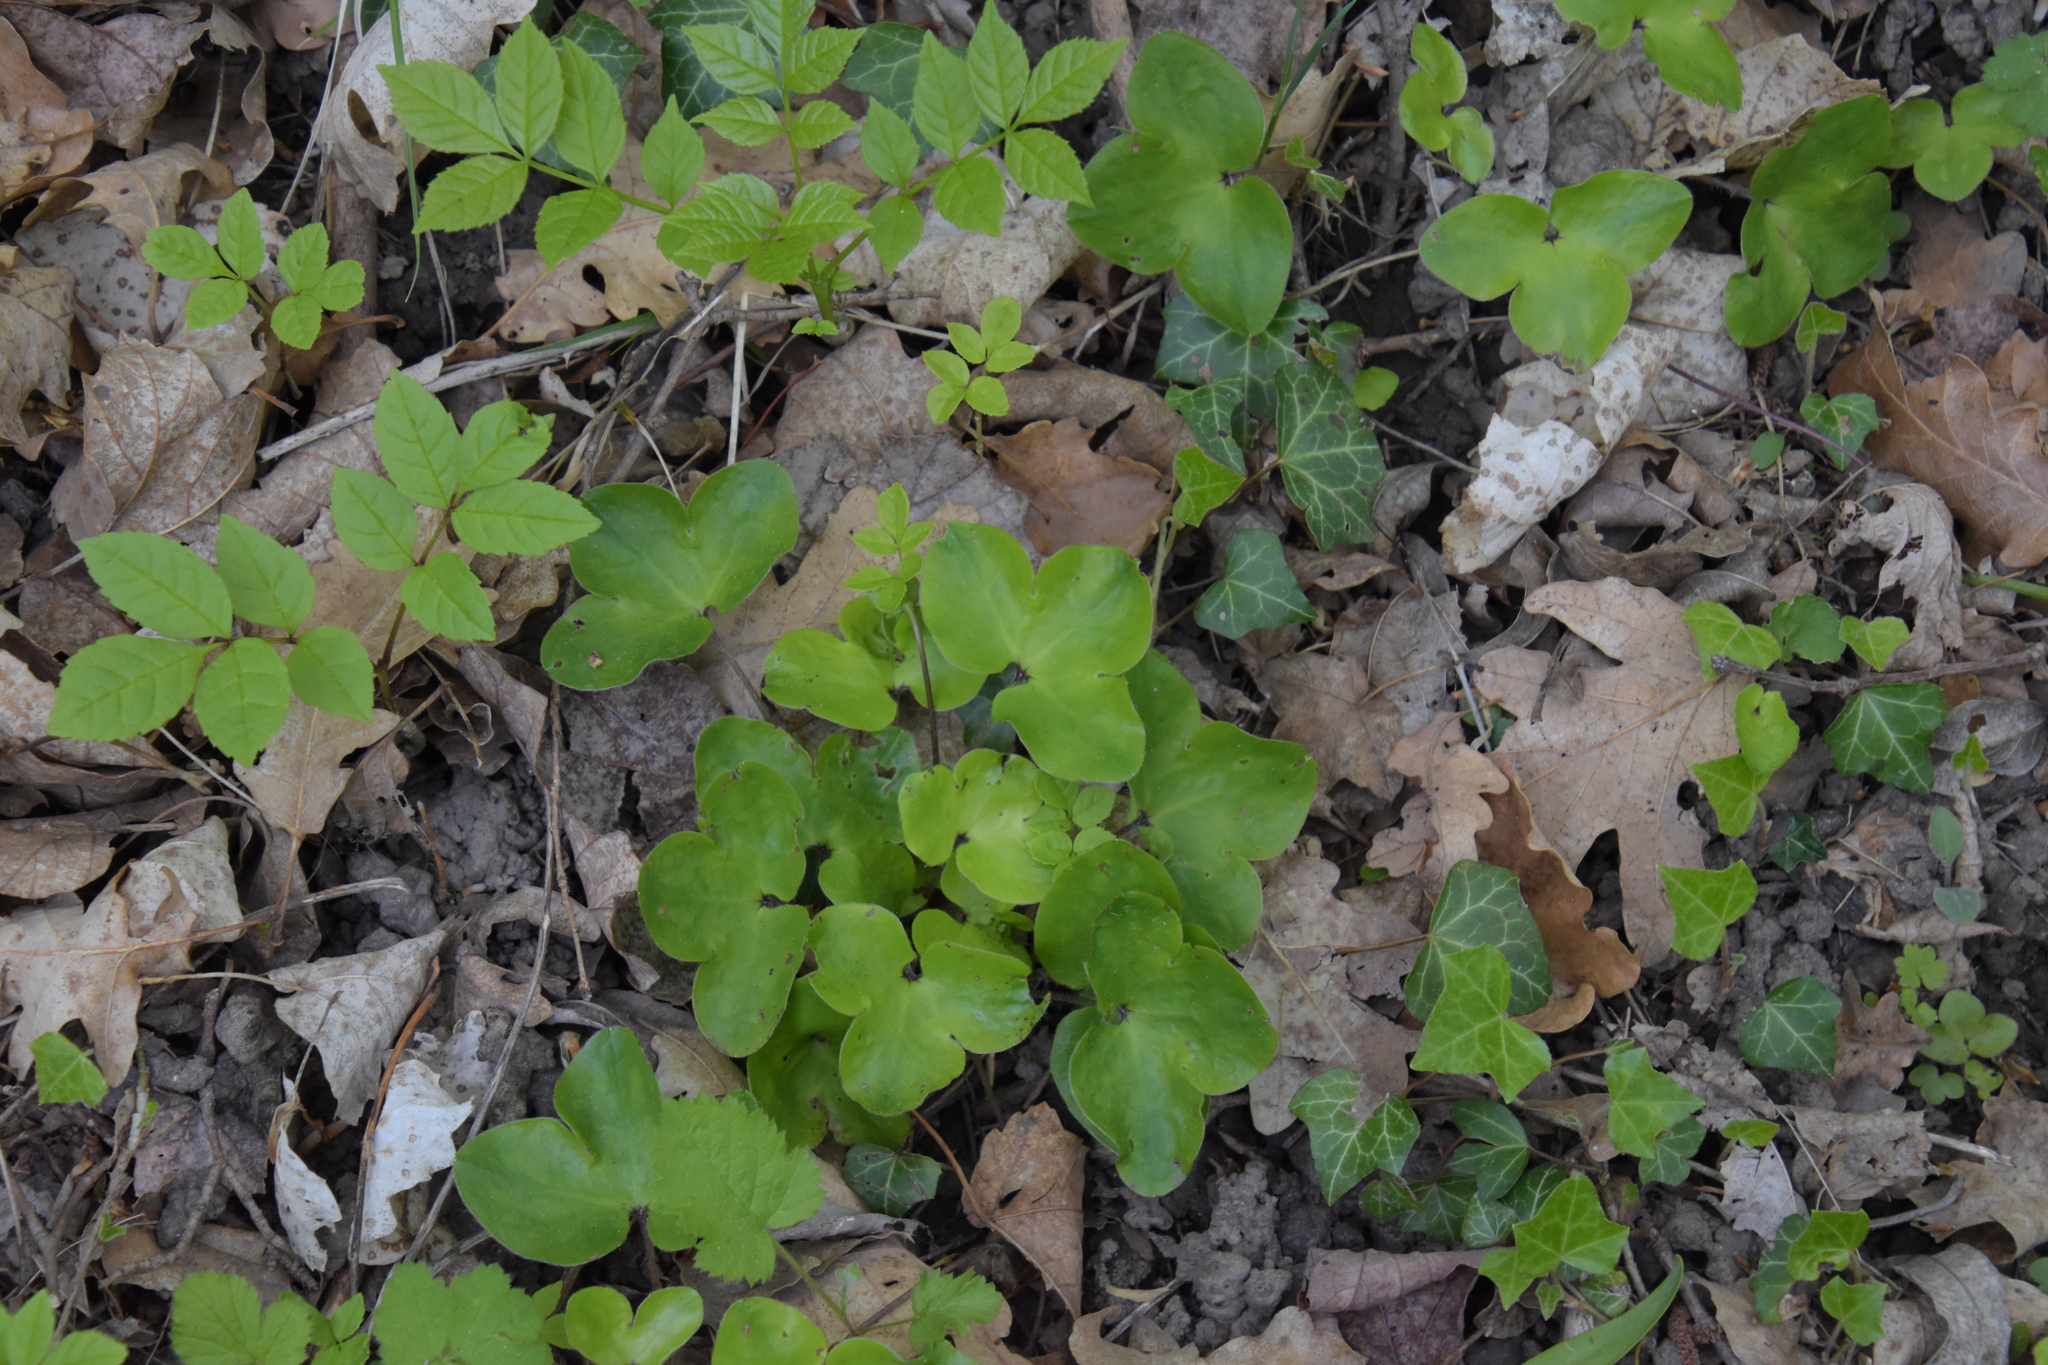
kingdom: Plantae
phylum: Tracheophyta
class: Magnoliopsida
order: Ranunculales
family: Ranunculaceae
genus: Hepatica
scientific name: Hepatica nobilis
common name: Liverleaf
